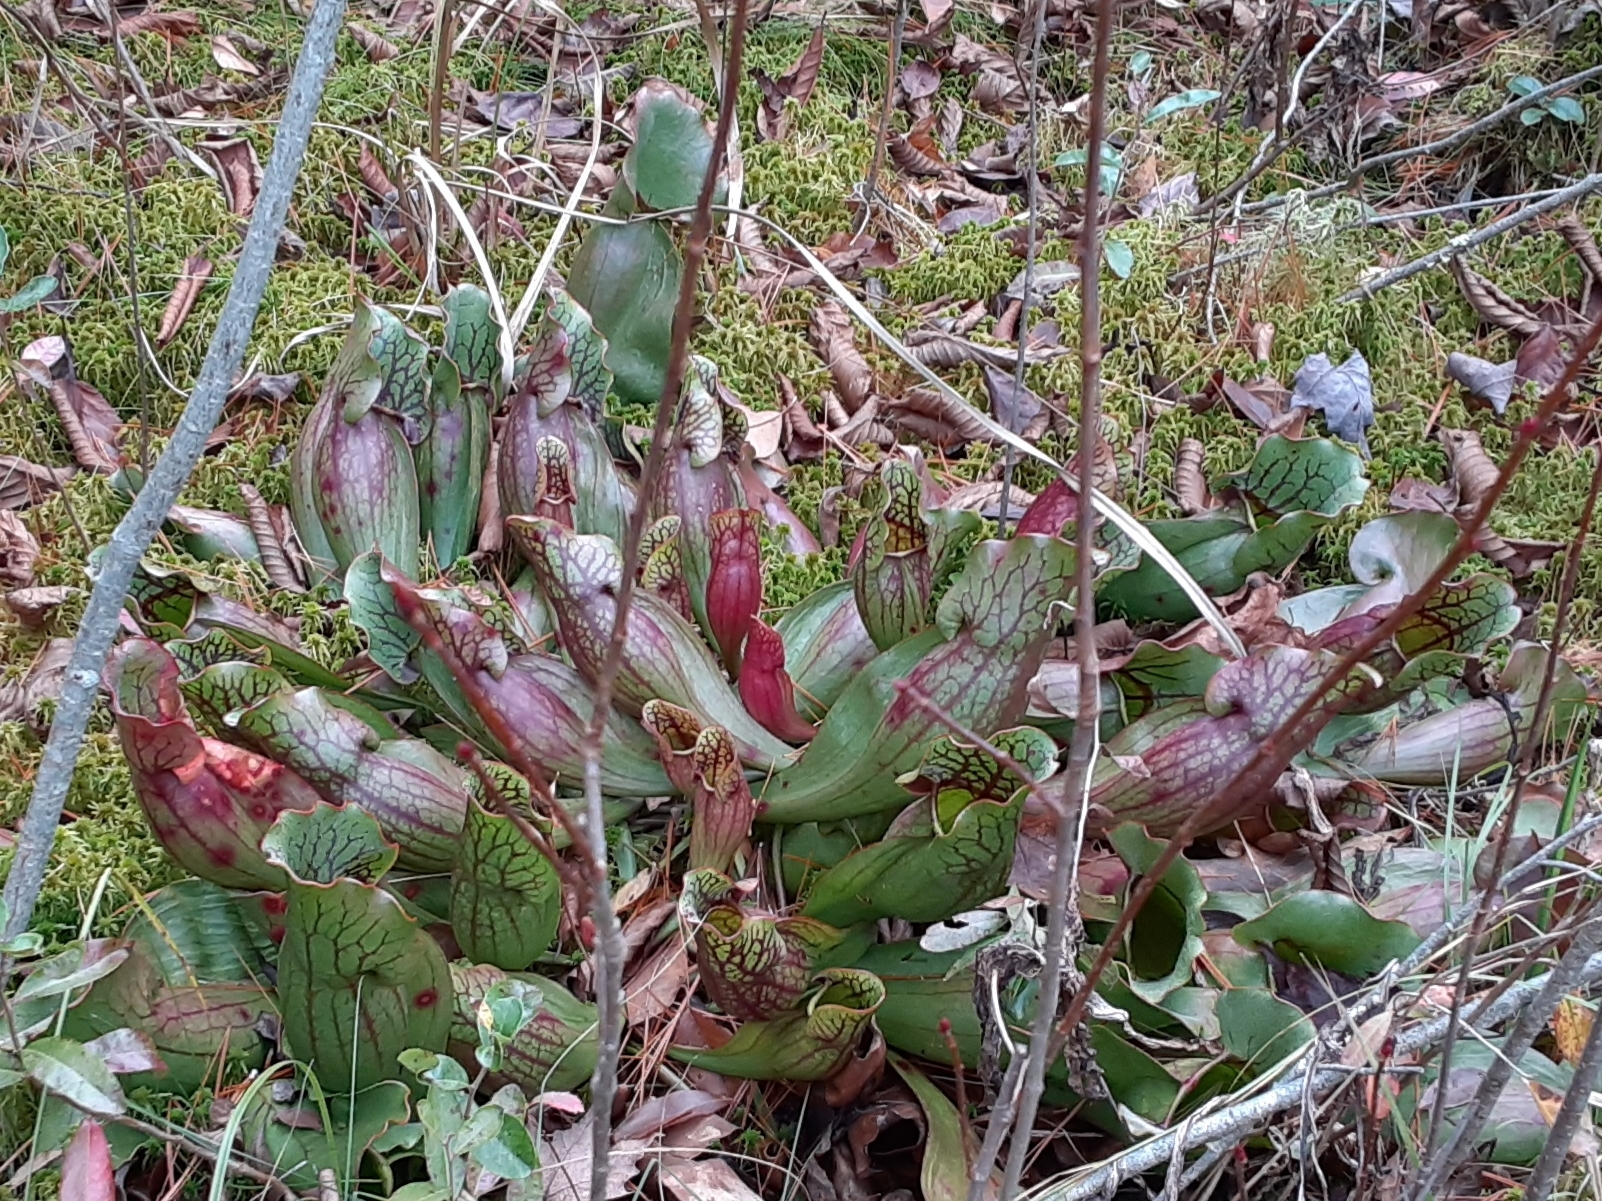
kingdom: Plantae
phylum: Tracheophyta
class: Magnoliopsida
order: Ericales
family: Sarraceniaceae
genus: Sarracenia
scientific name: Sarracenia purpurea
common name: Pitcherplant
